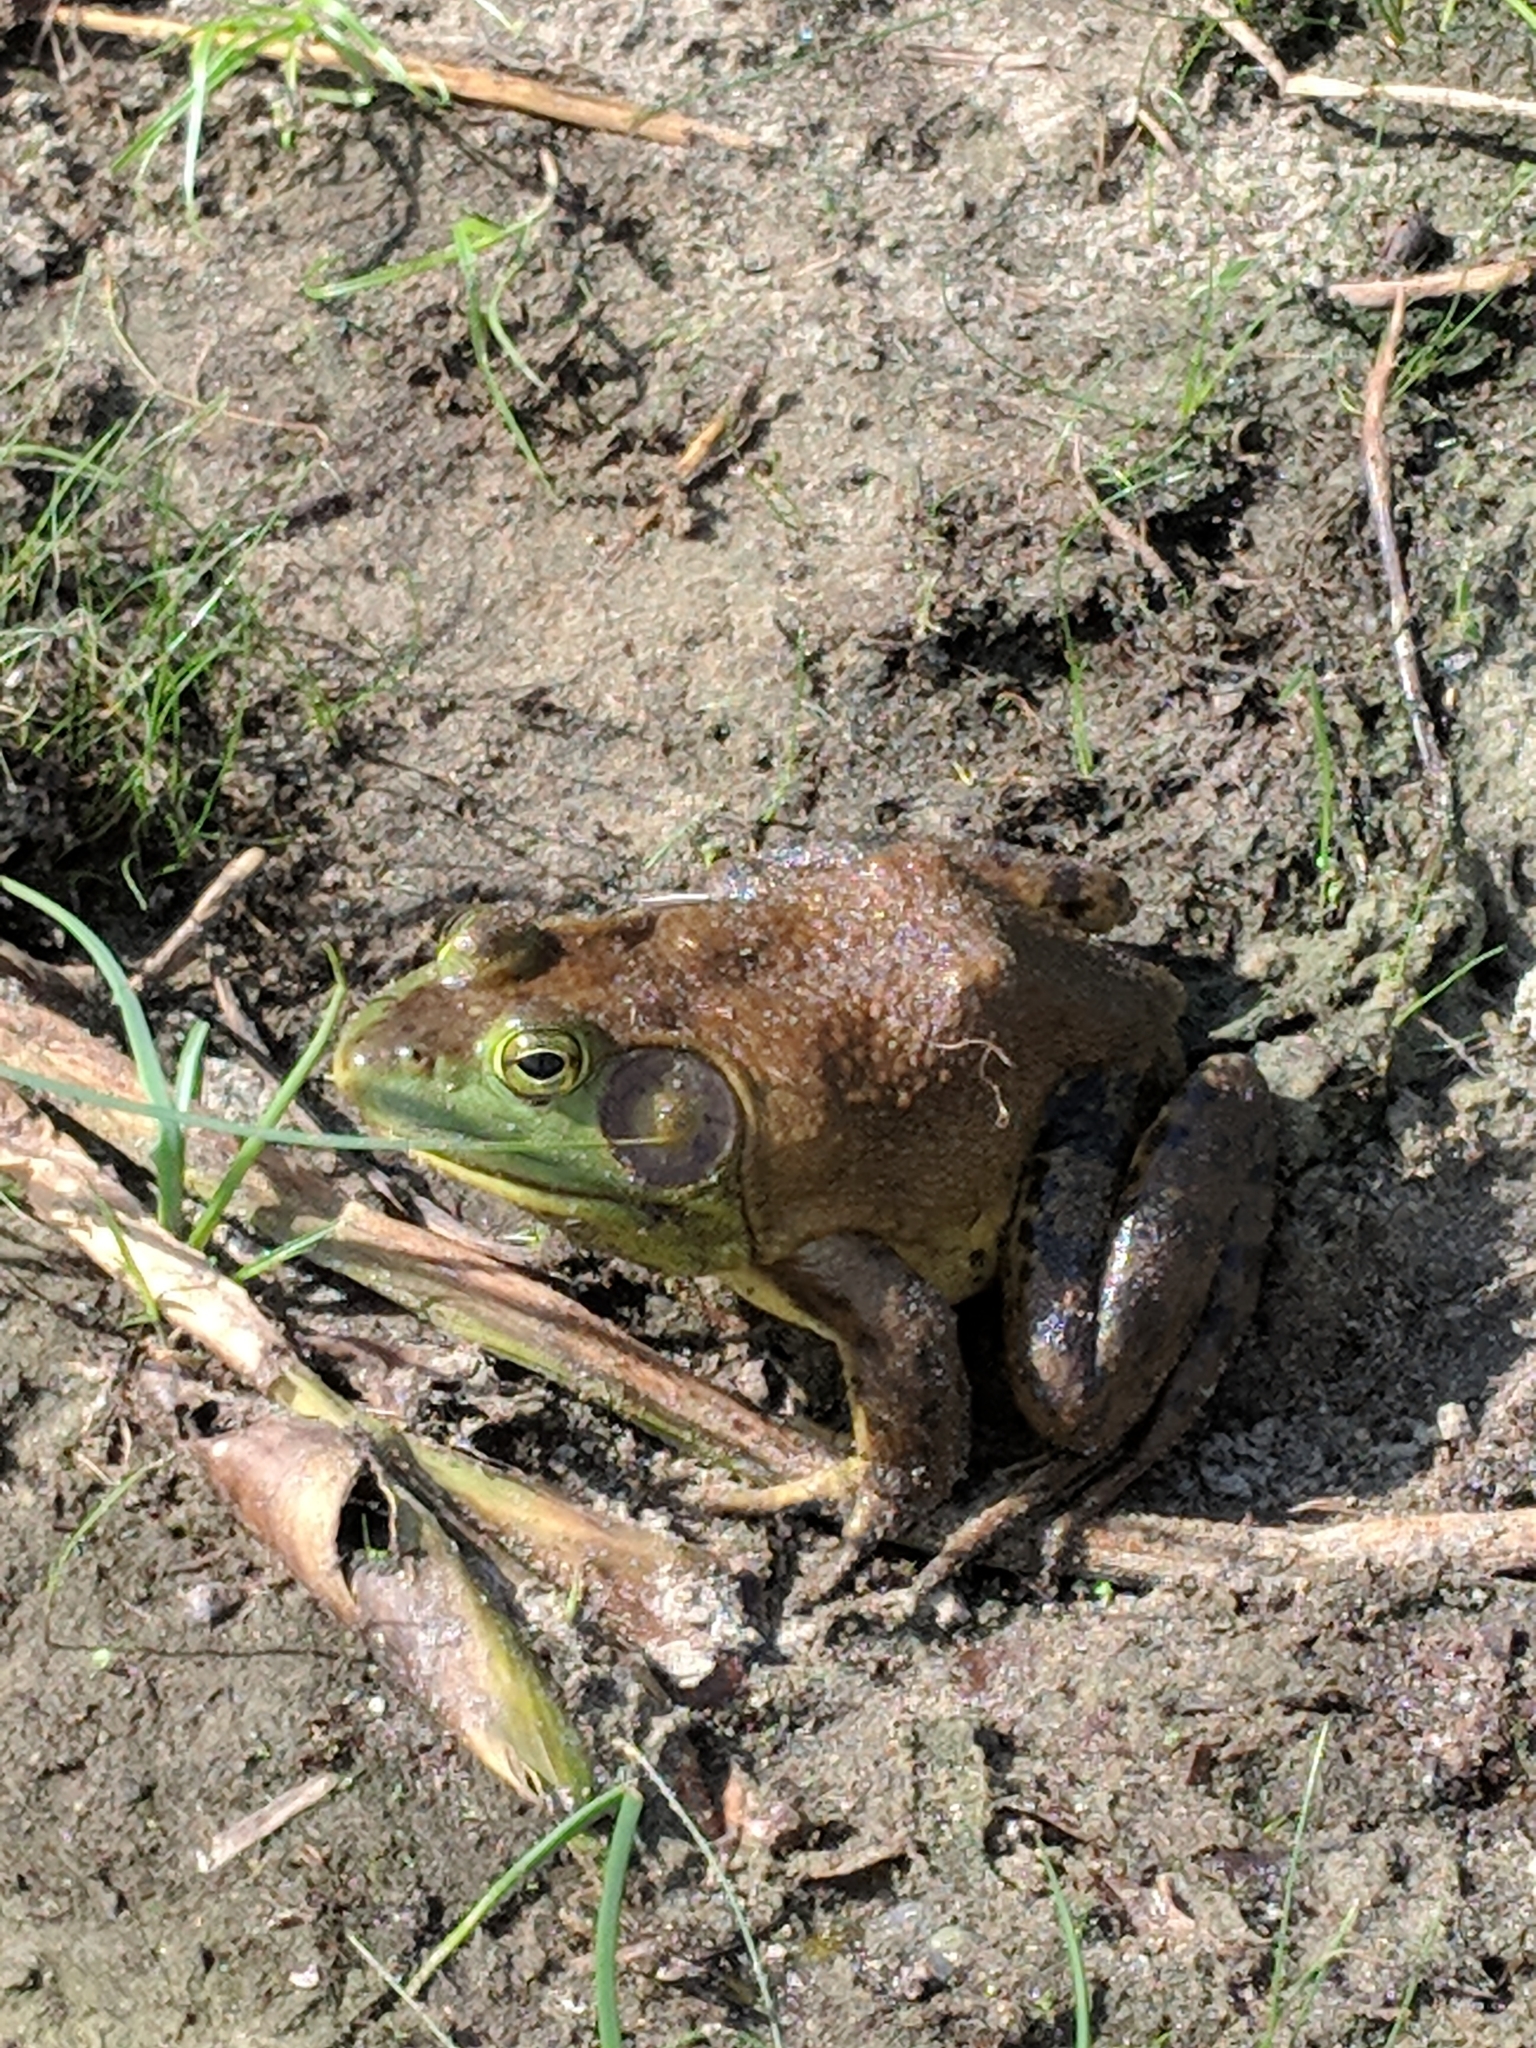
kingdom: Animalia
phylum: Chordata
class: Amphibia
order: Anura
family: Ranidae
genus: Lithobates
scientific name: Lithobates catesbeianus
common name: American bullfrog
